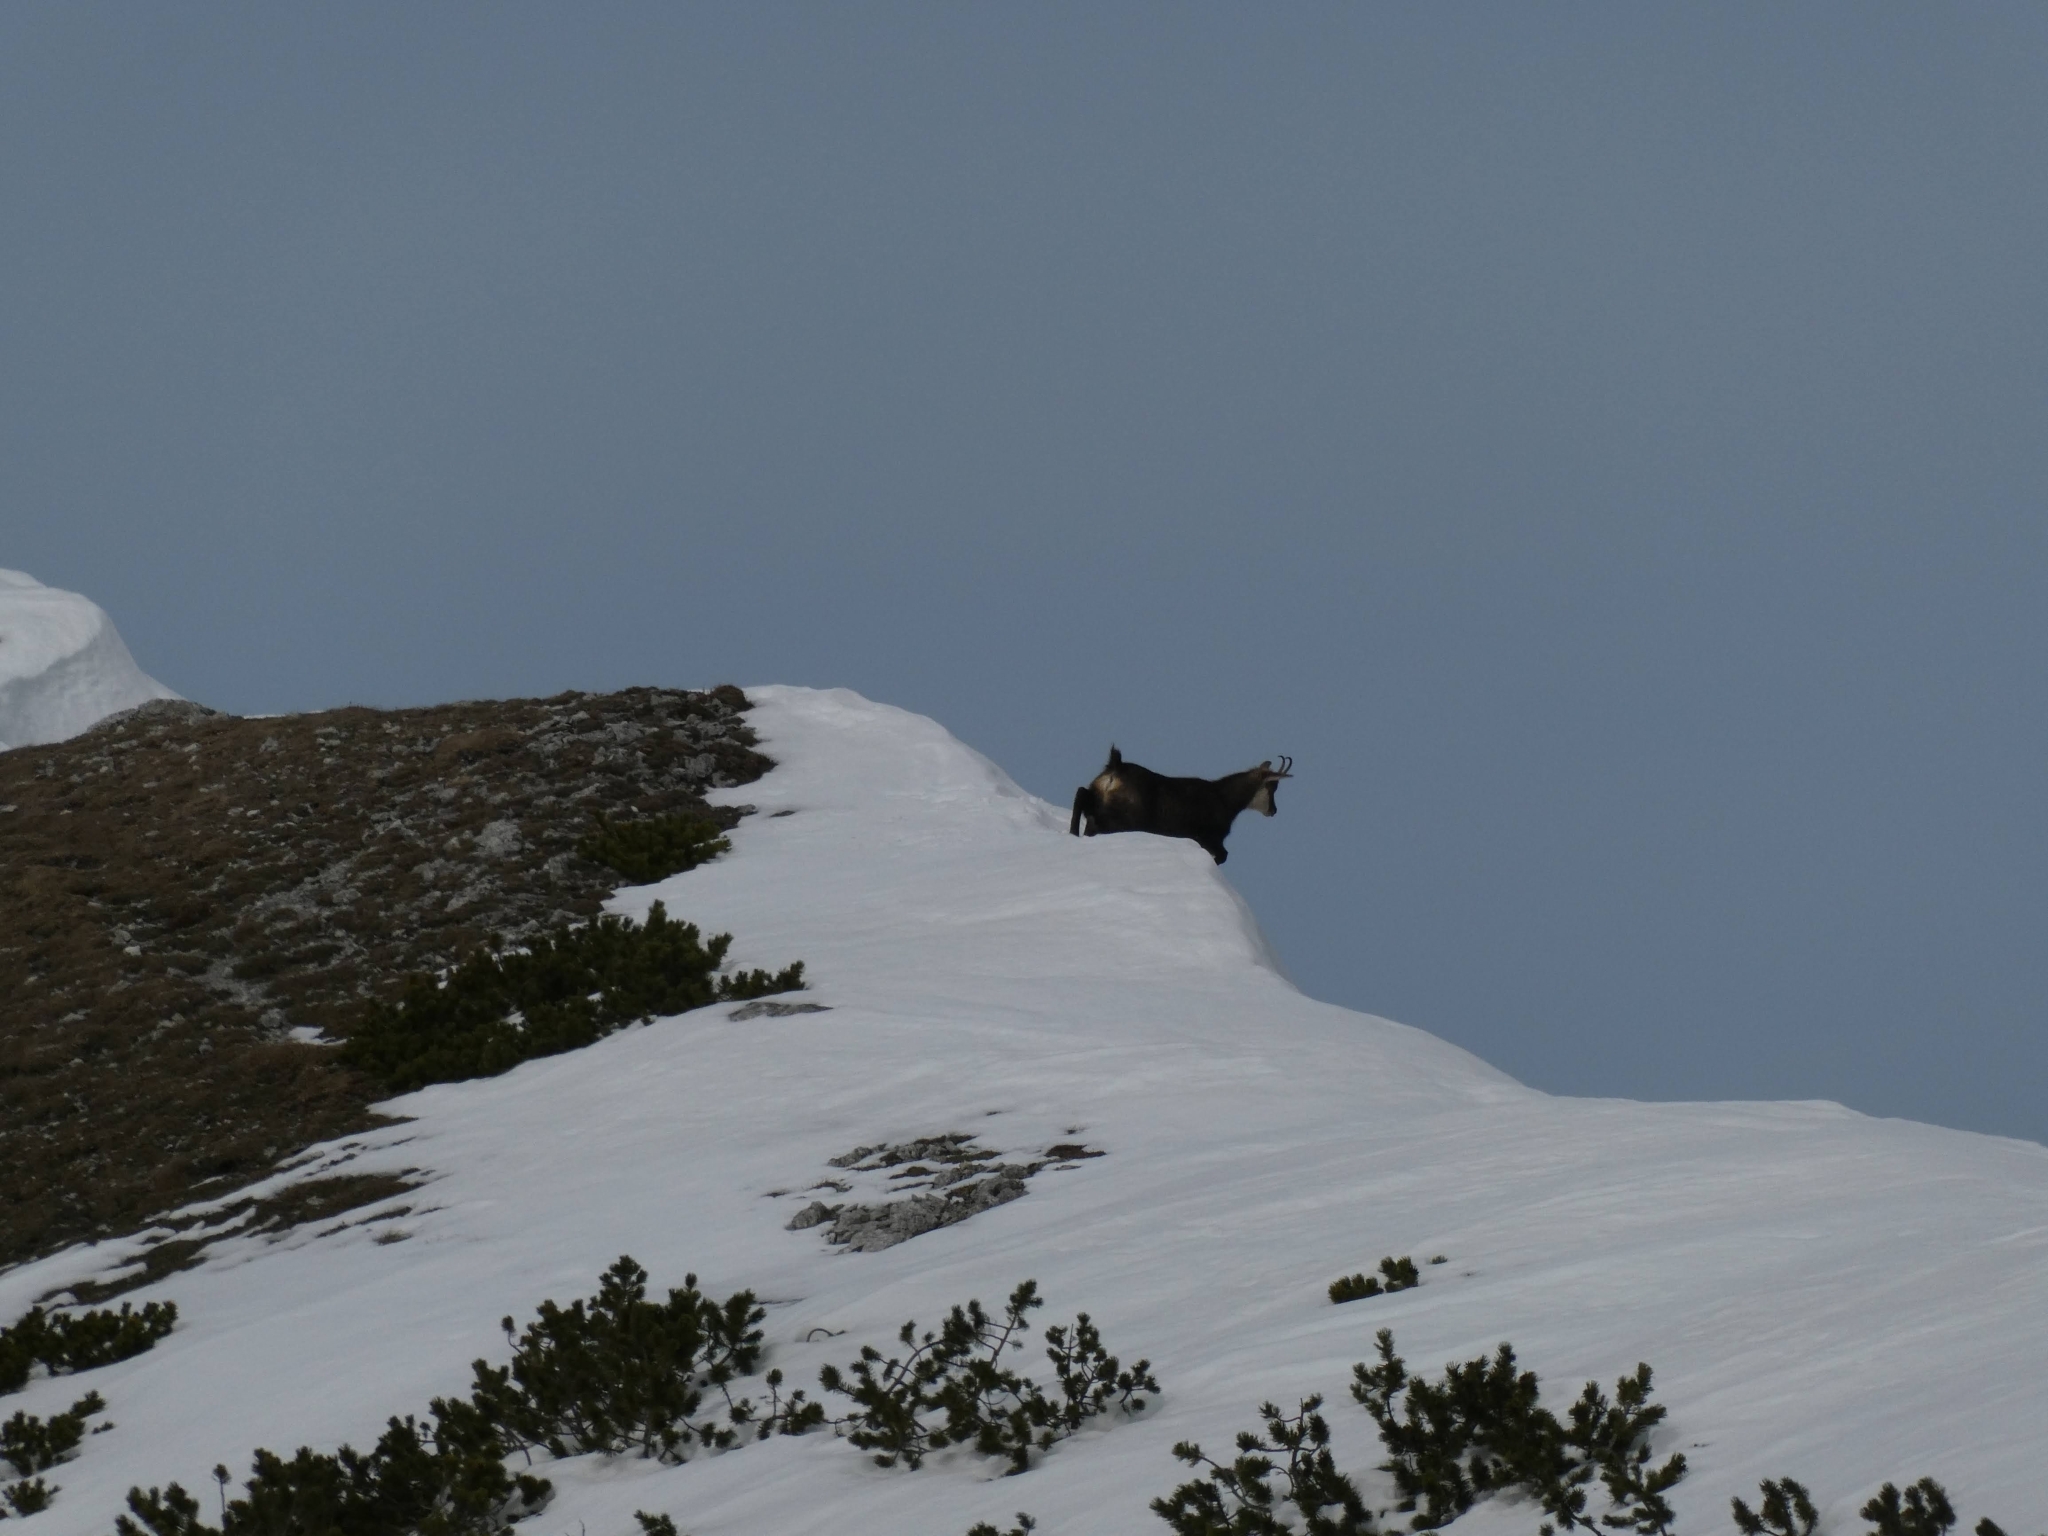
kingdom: Animalia
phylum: Chordata
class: Mammalia
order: Artiodactyla
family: Bovidae
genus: Rupicapra
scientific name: Rupicapra rupicapra
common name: Chamois
